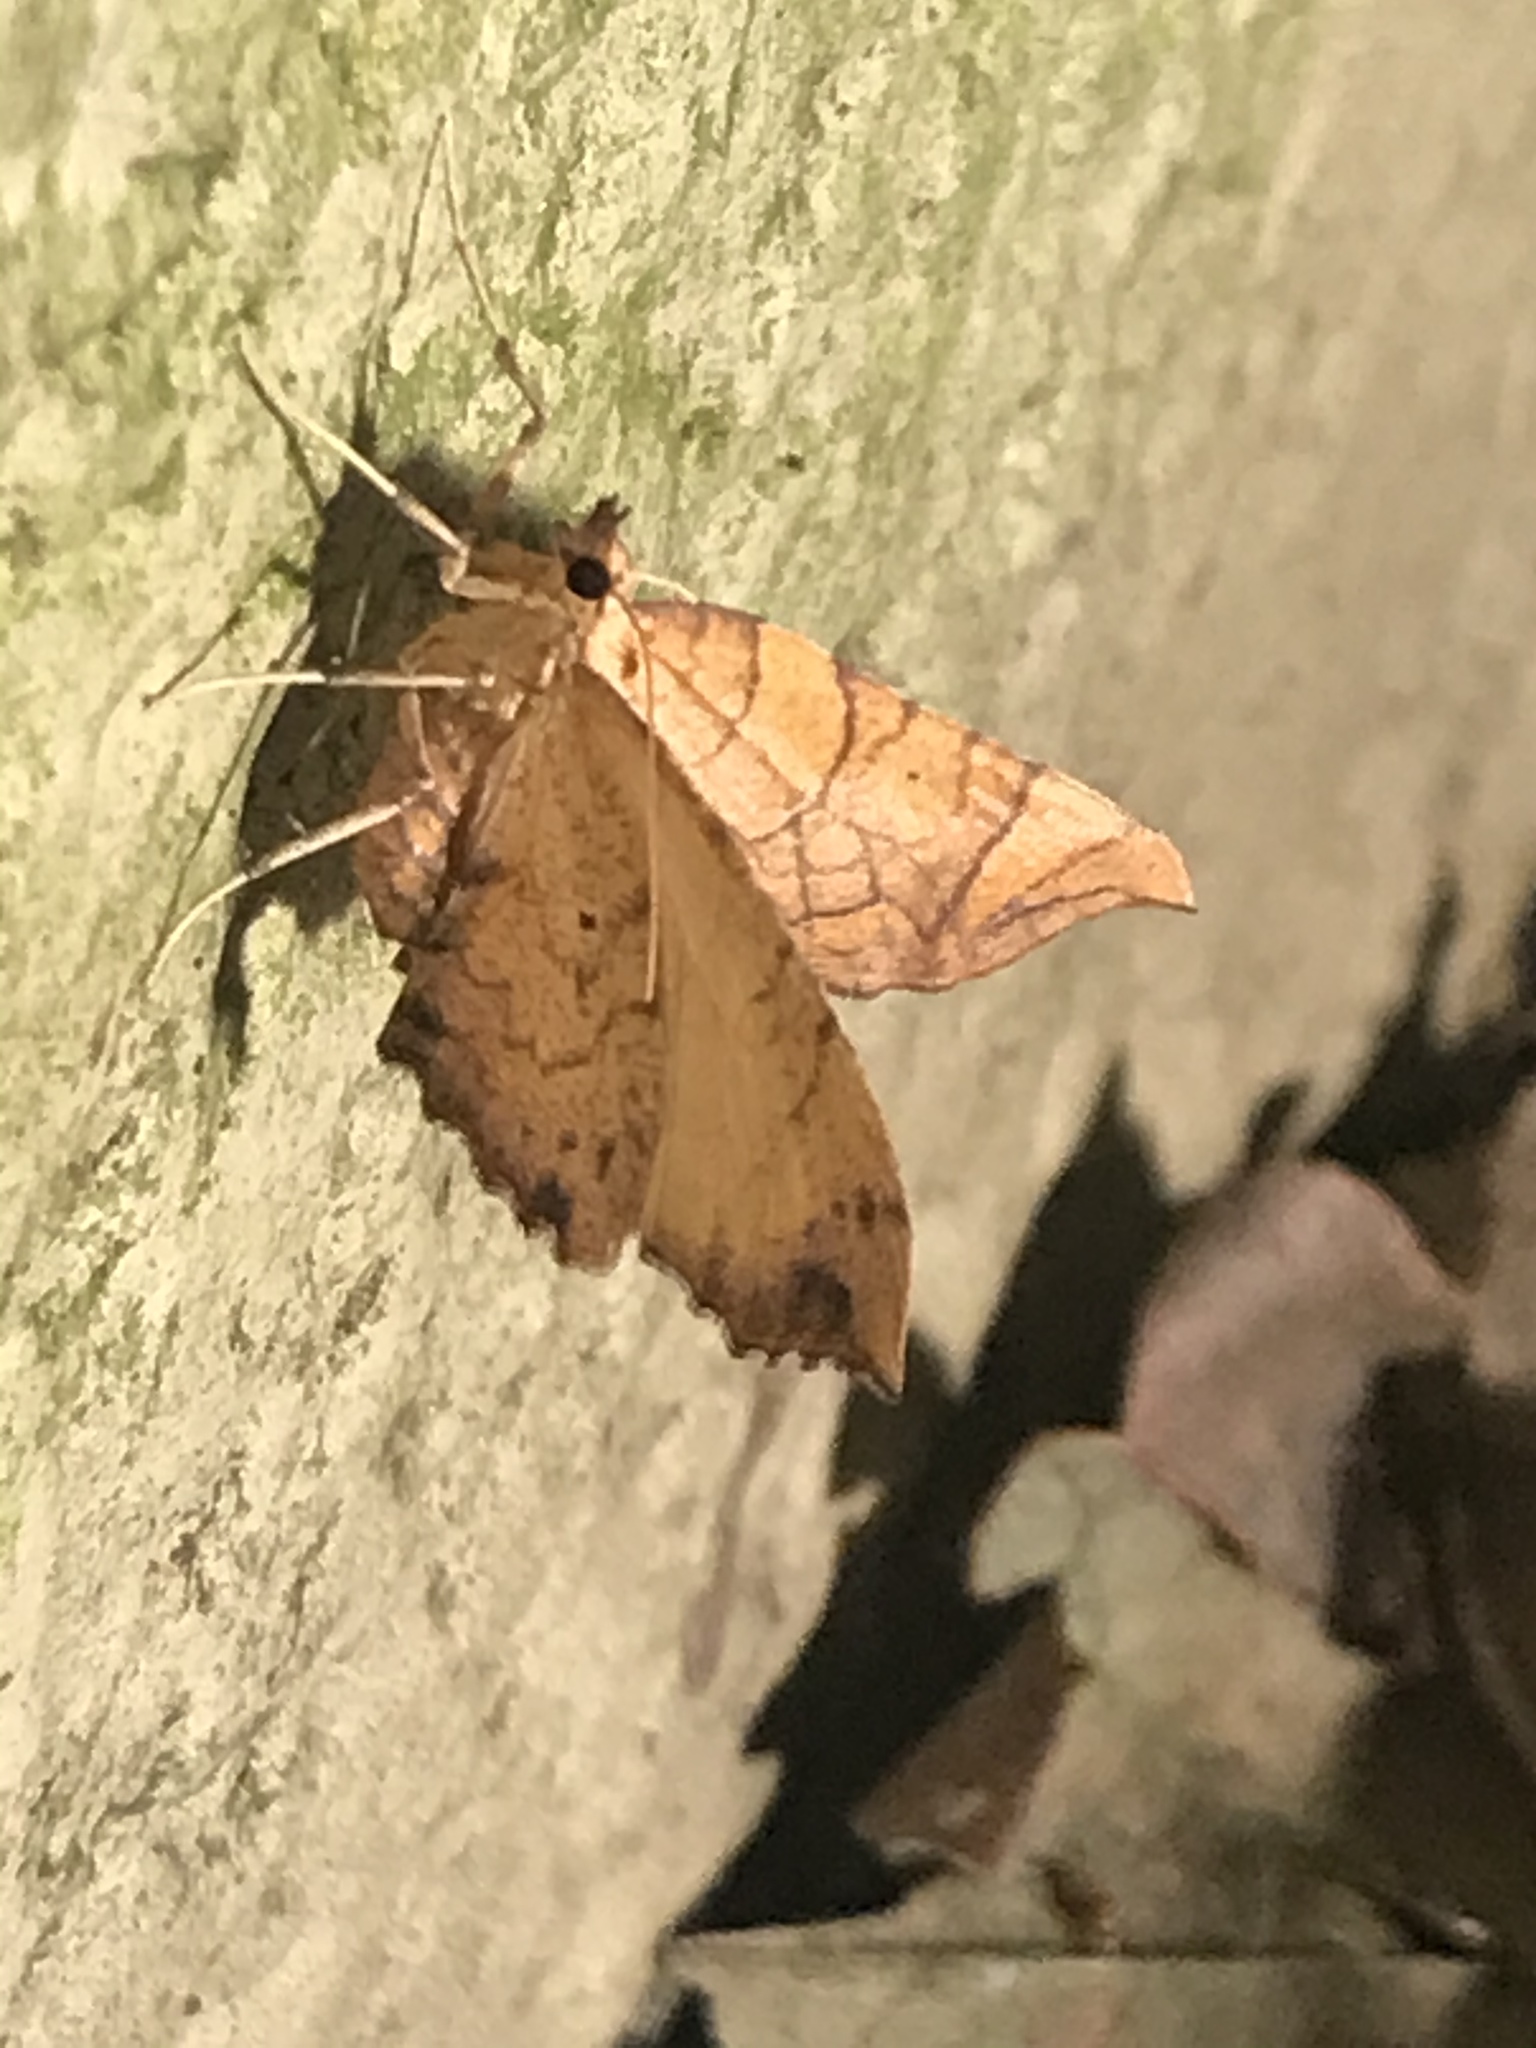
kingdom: Animalia
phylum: Arthropoda
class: Insecta
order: Lepidoptera
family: Geometridae
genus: Eulithis
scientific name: Eulithis
